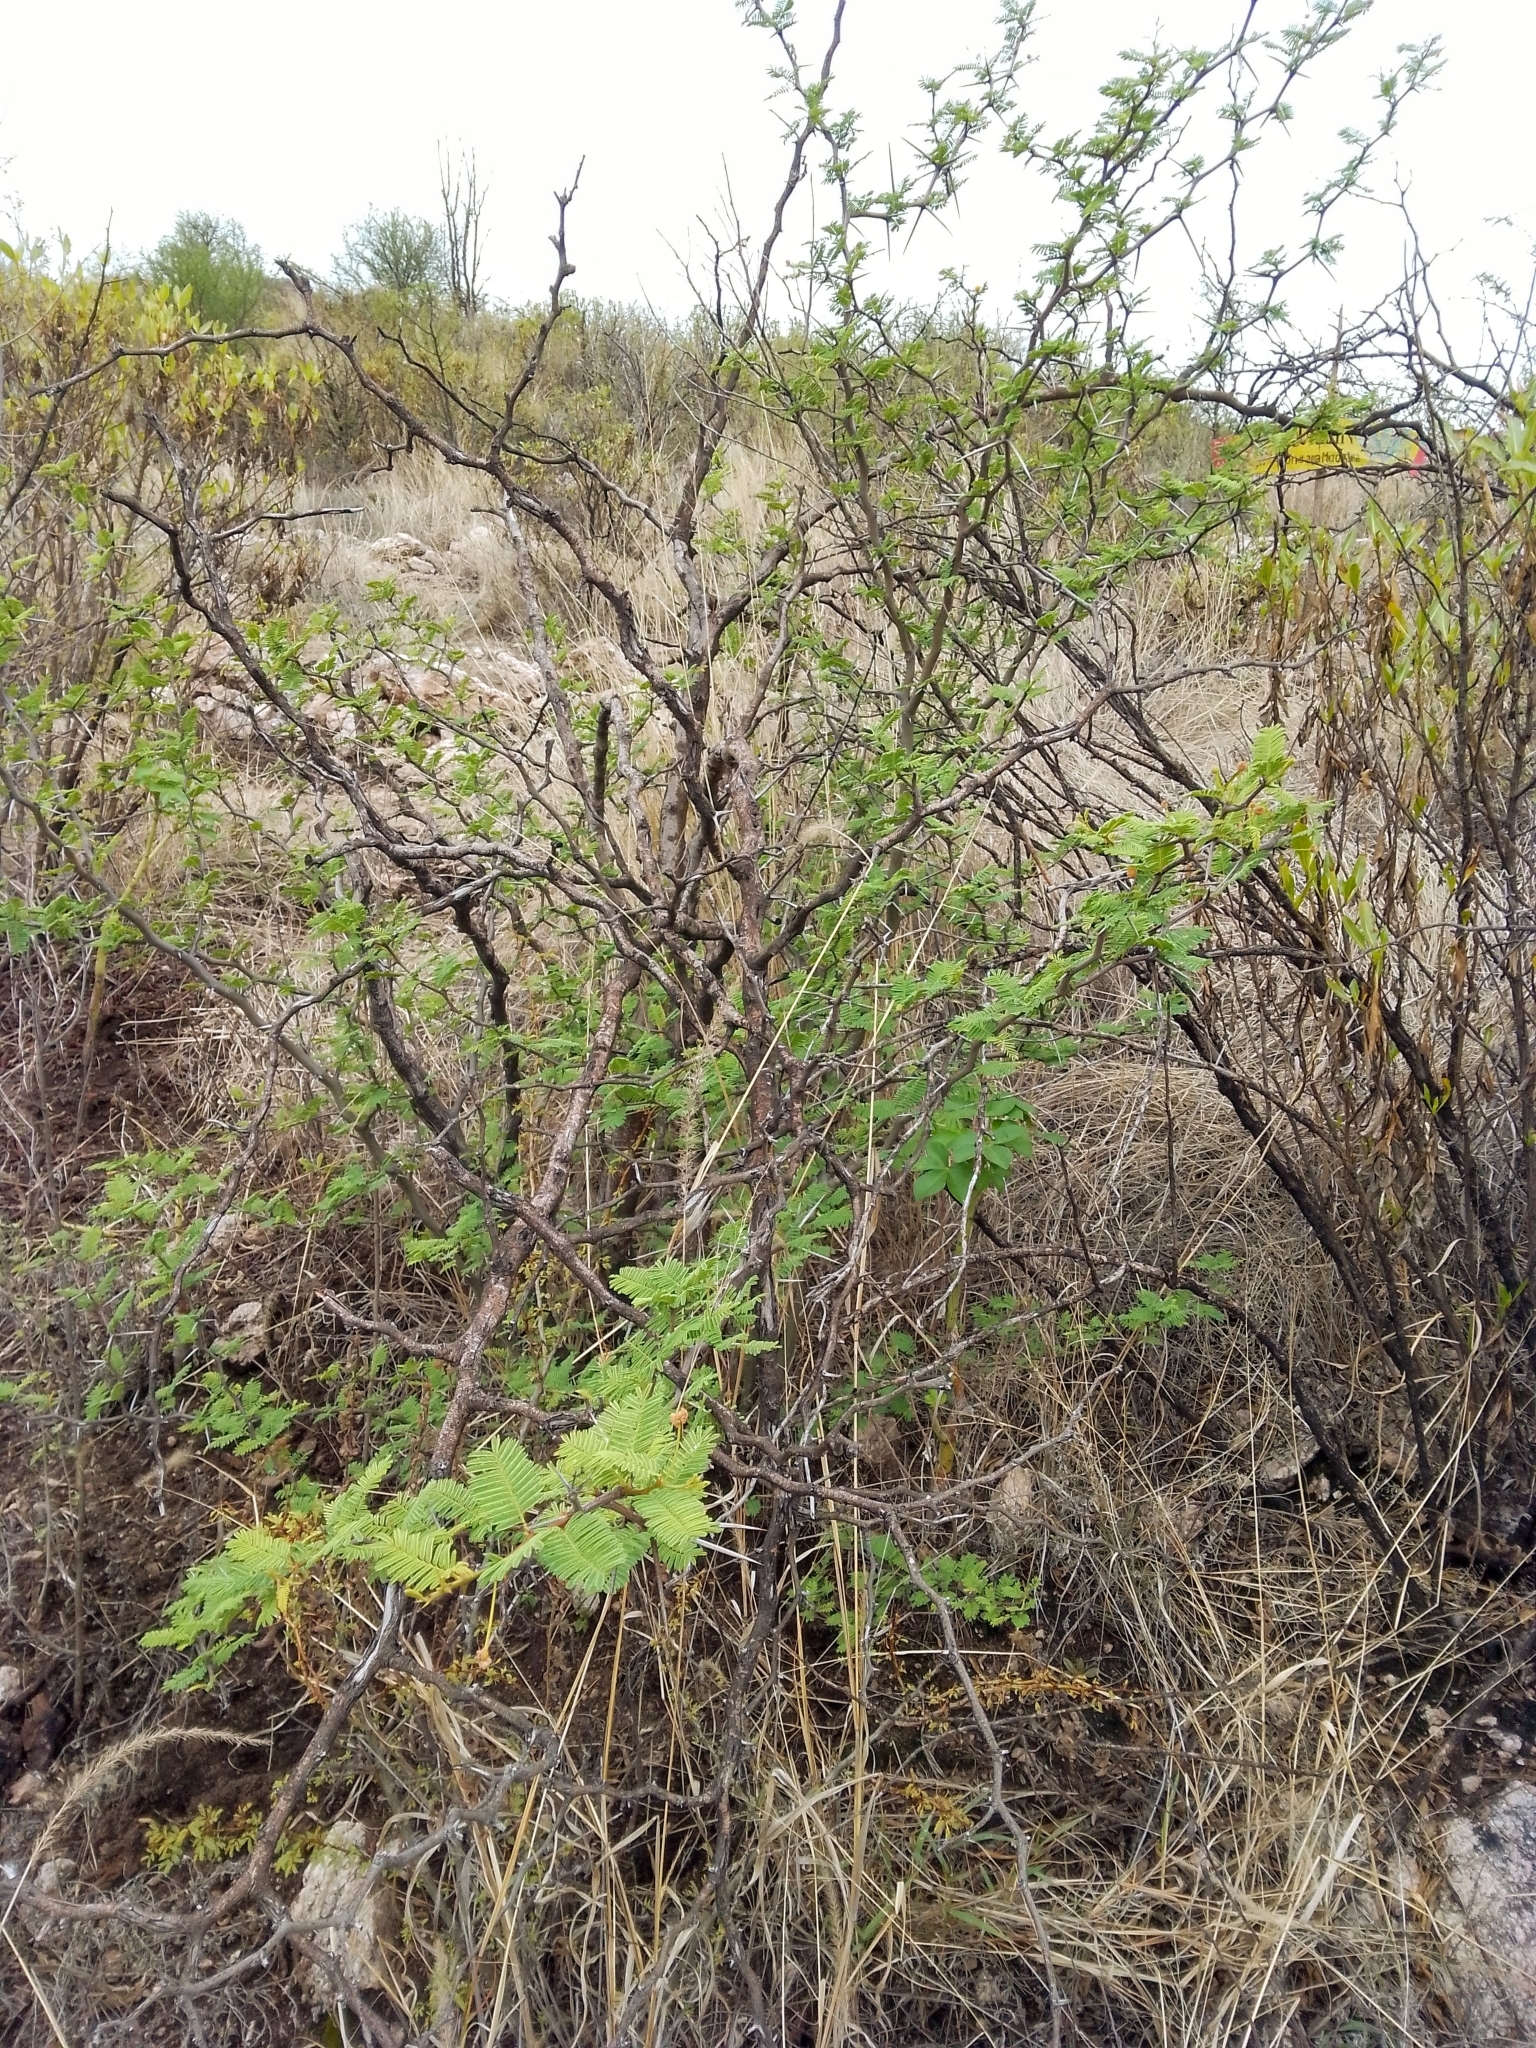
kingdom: Plantae
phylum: Tracheophyta
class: Magnoliopsida
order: Fabales
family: Fabaceae
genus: Vachellia
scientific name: Vachellia aroma
